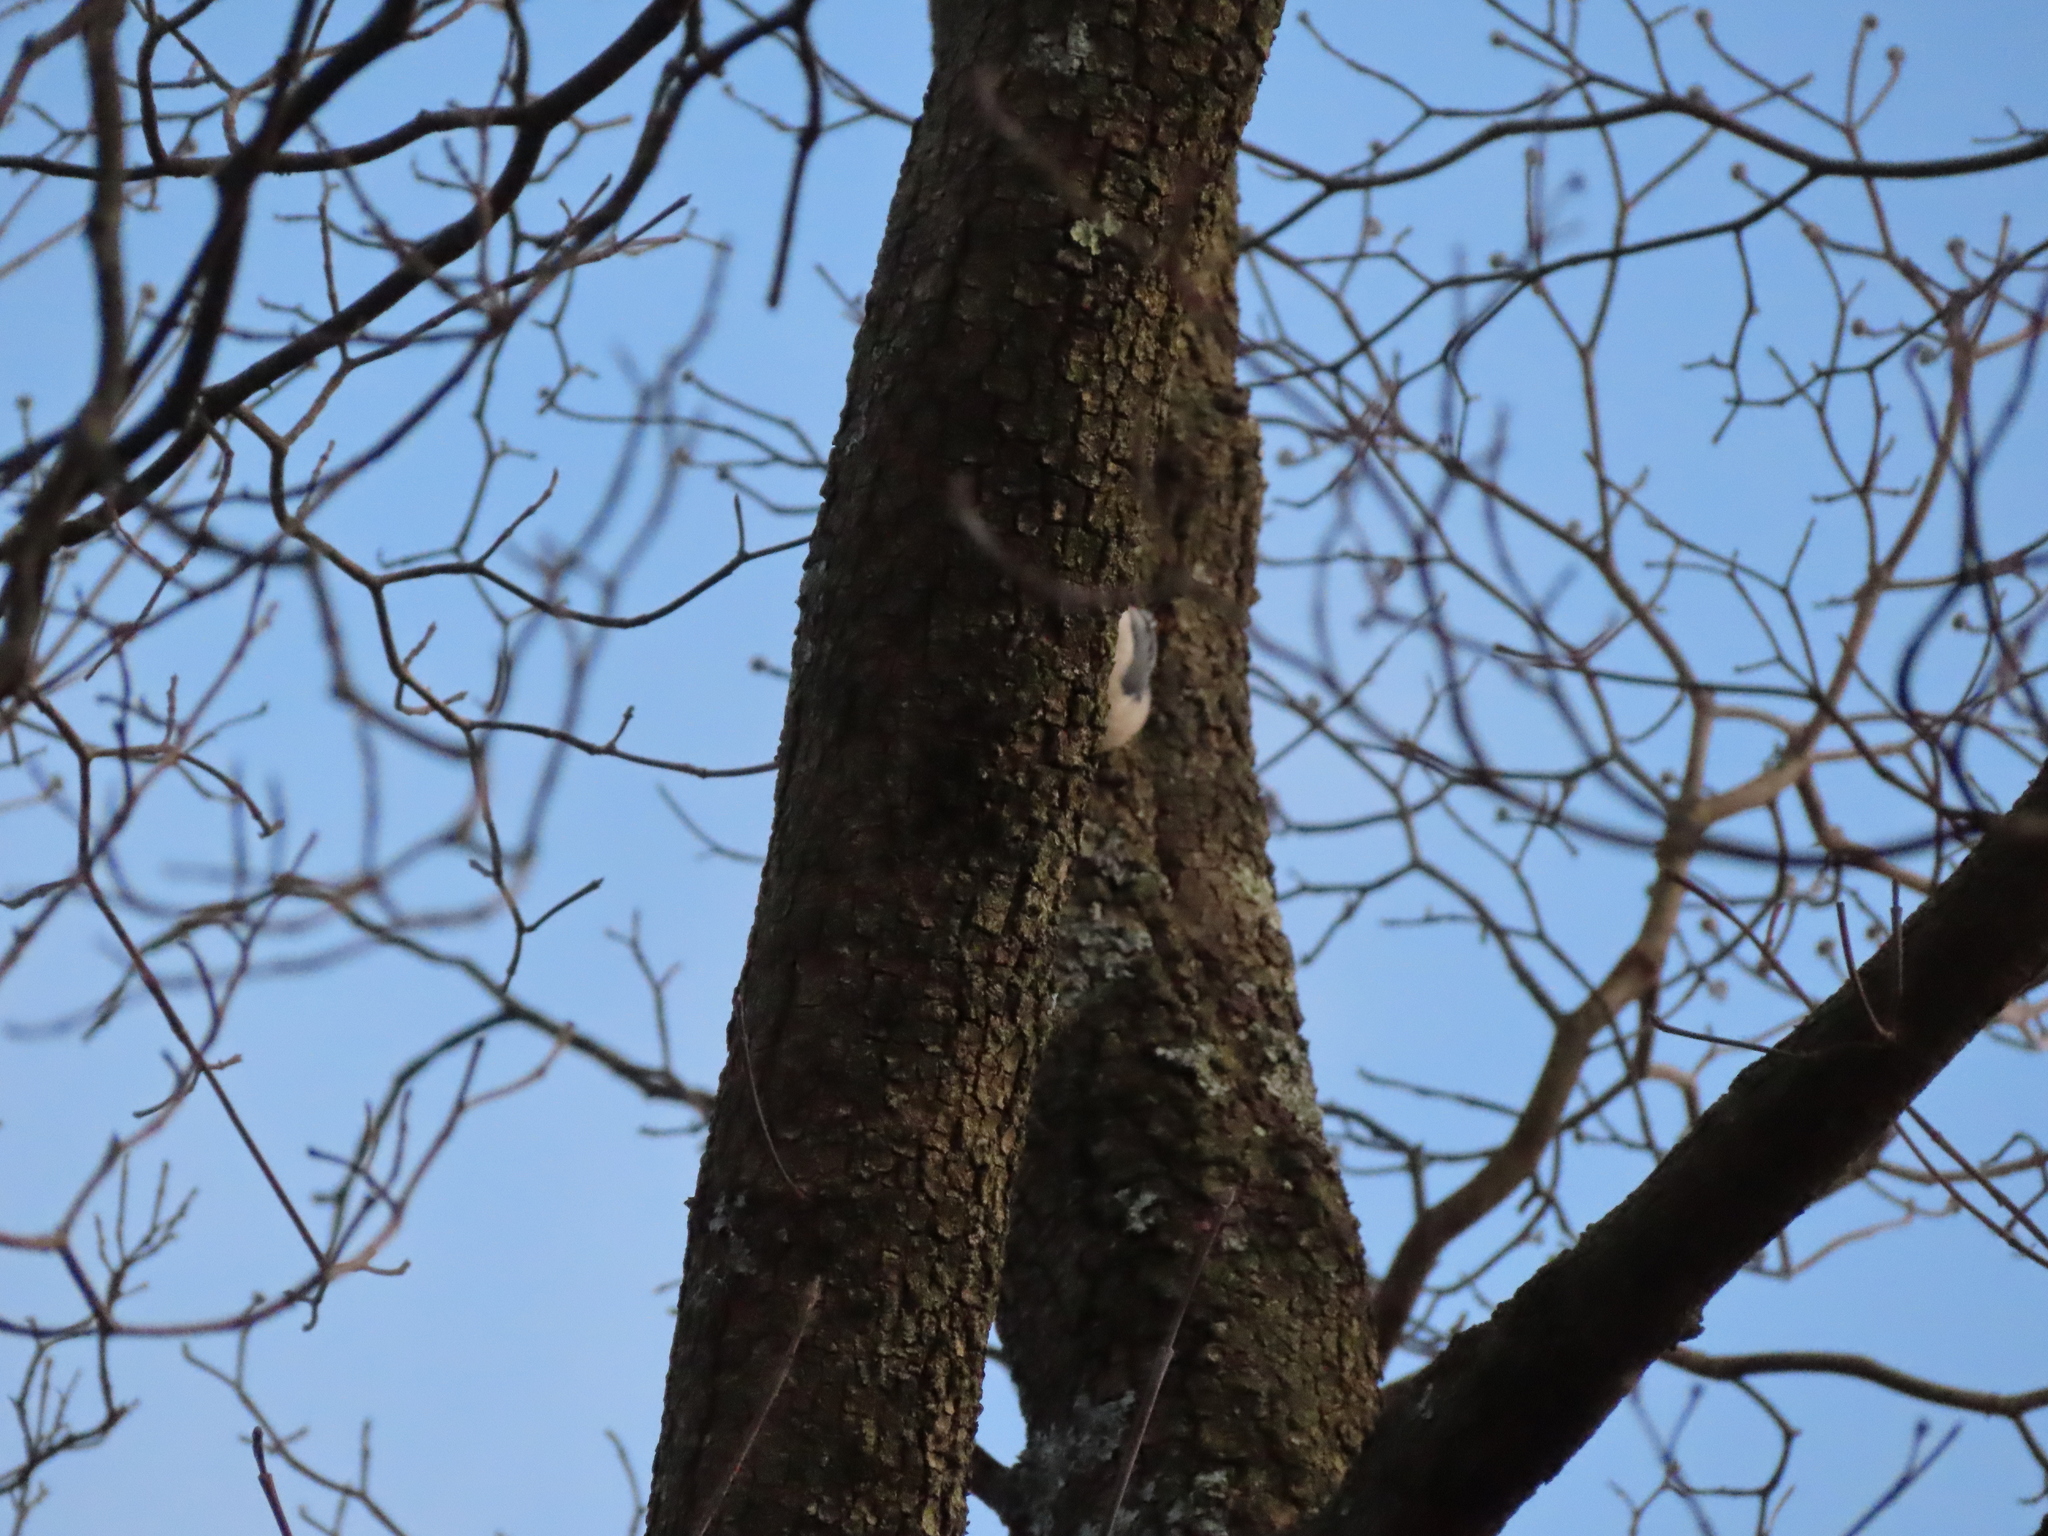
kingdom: Animalia
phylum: Chordata
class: Aves
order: Passeriformes
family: Sittidae
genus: Sitta
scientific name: Sitta carolinensis
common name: White-breasted nuthatch
